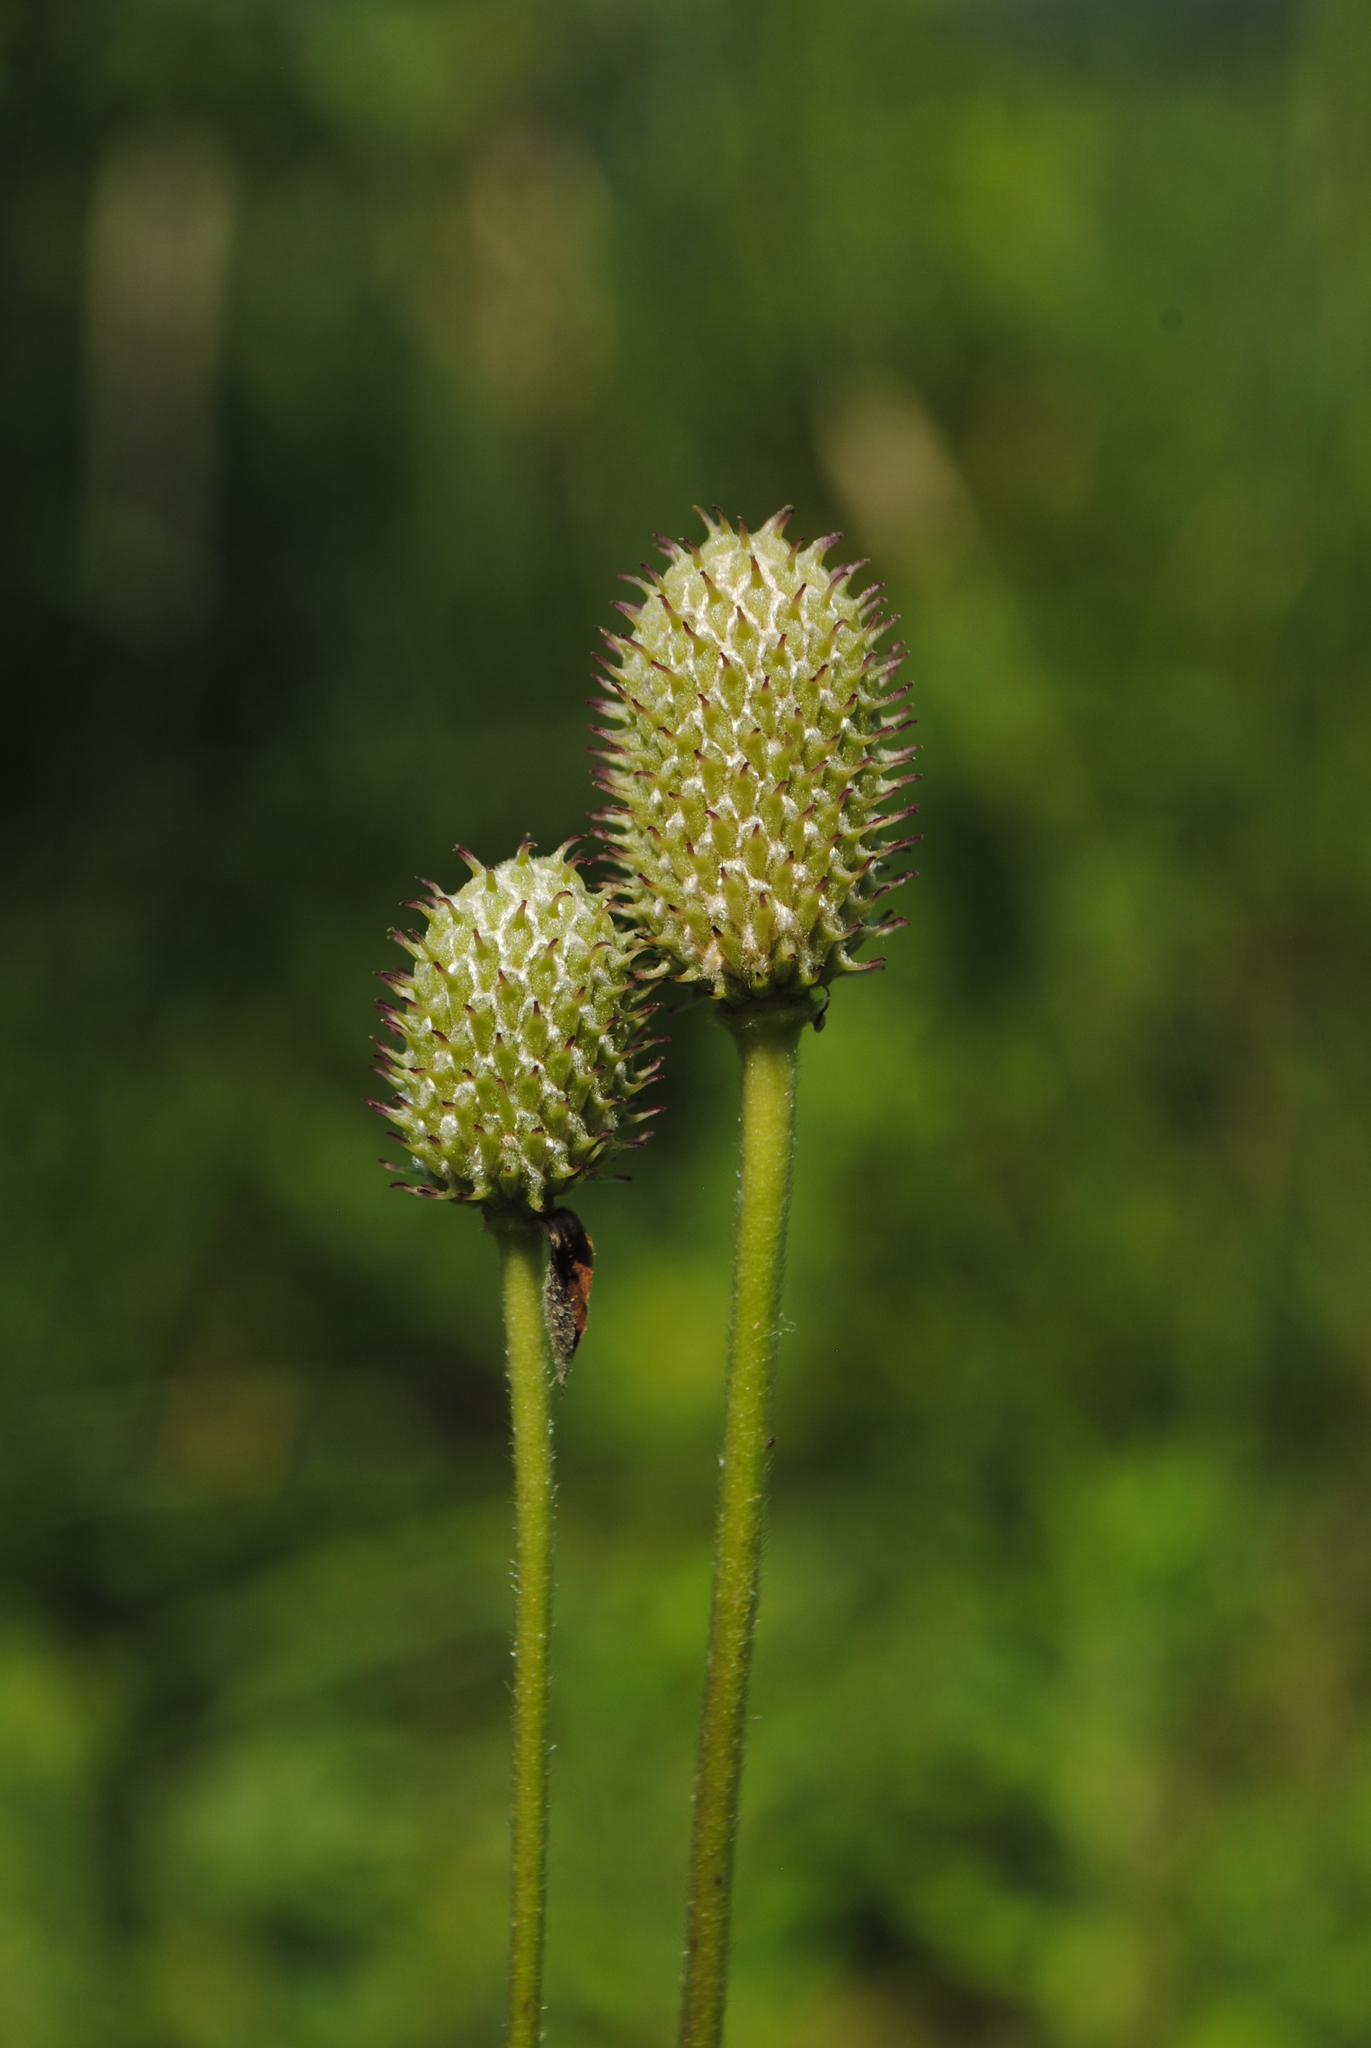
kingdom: Plantae
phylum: Tracheophyta
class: Magnoliopsida
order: Ranunculales
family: Ranunculaceae
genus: Anemone
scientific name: Anemone virginiana
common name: Tall anemone
